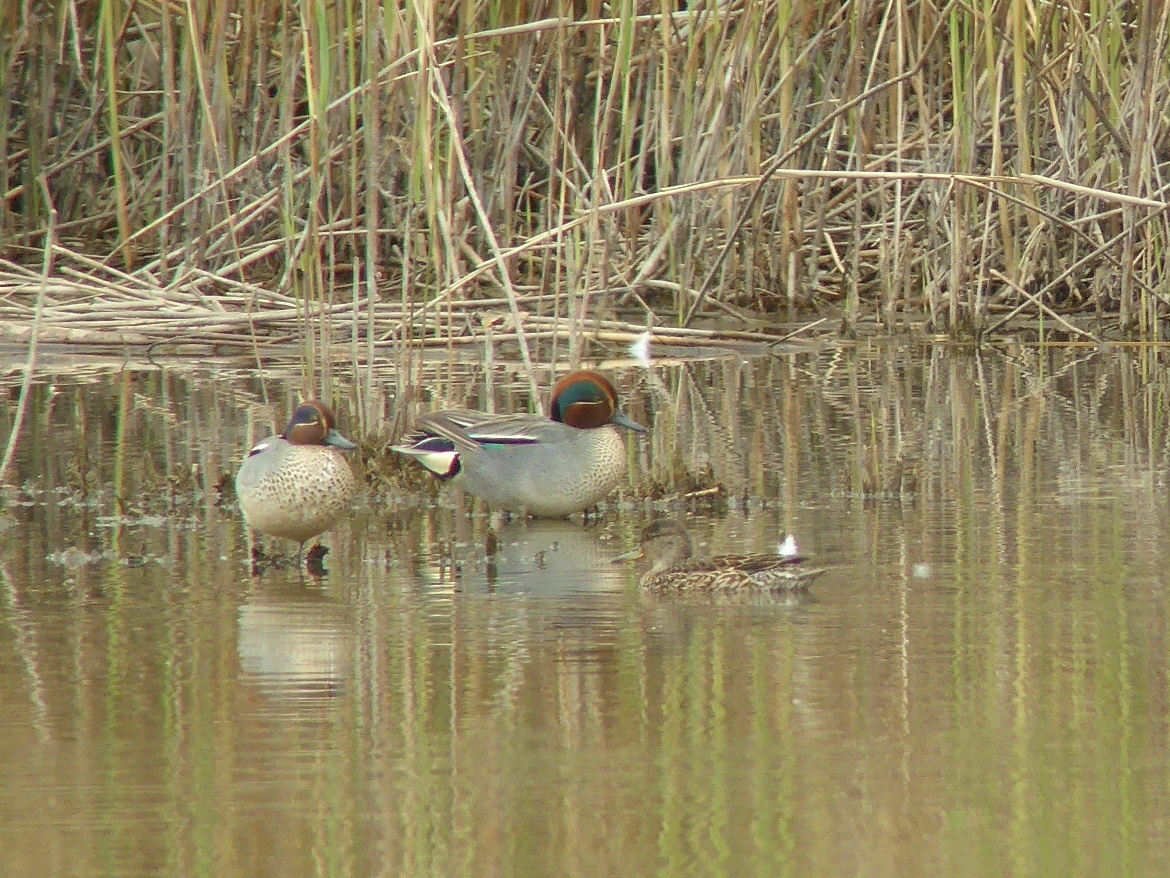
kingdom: Animalia
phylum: Chordata
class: Aves
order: Anseriformes
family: Anatidae
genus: Anas
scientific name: Anas crecca
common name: Eurasian teal
